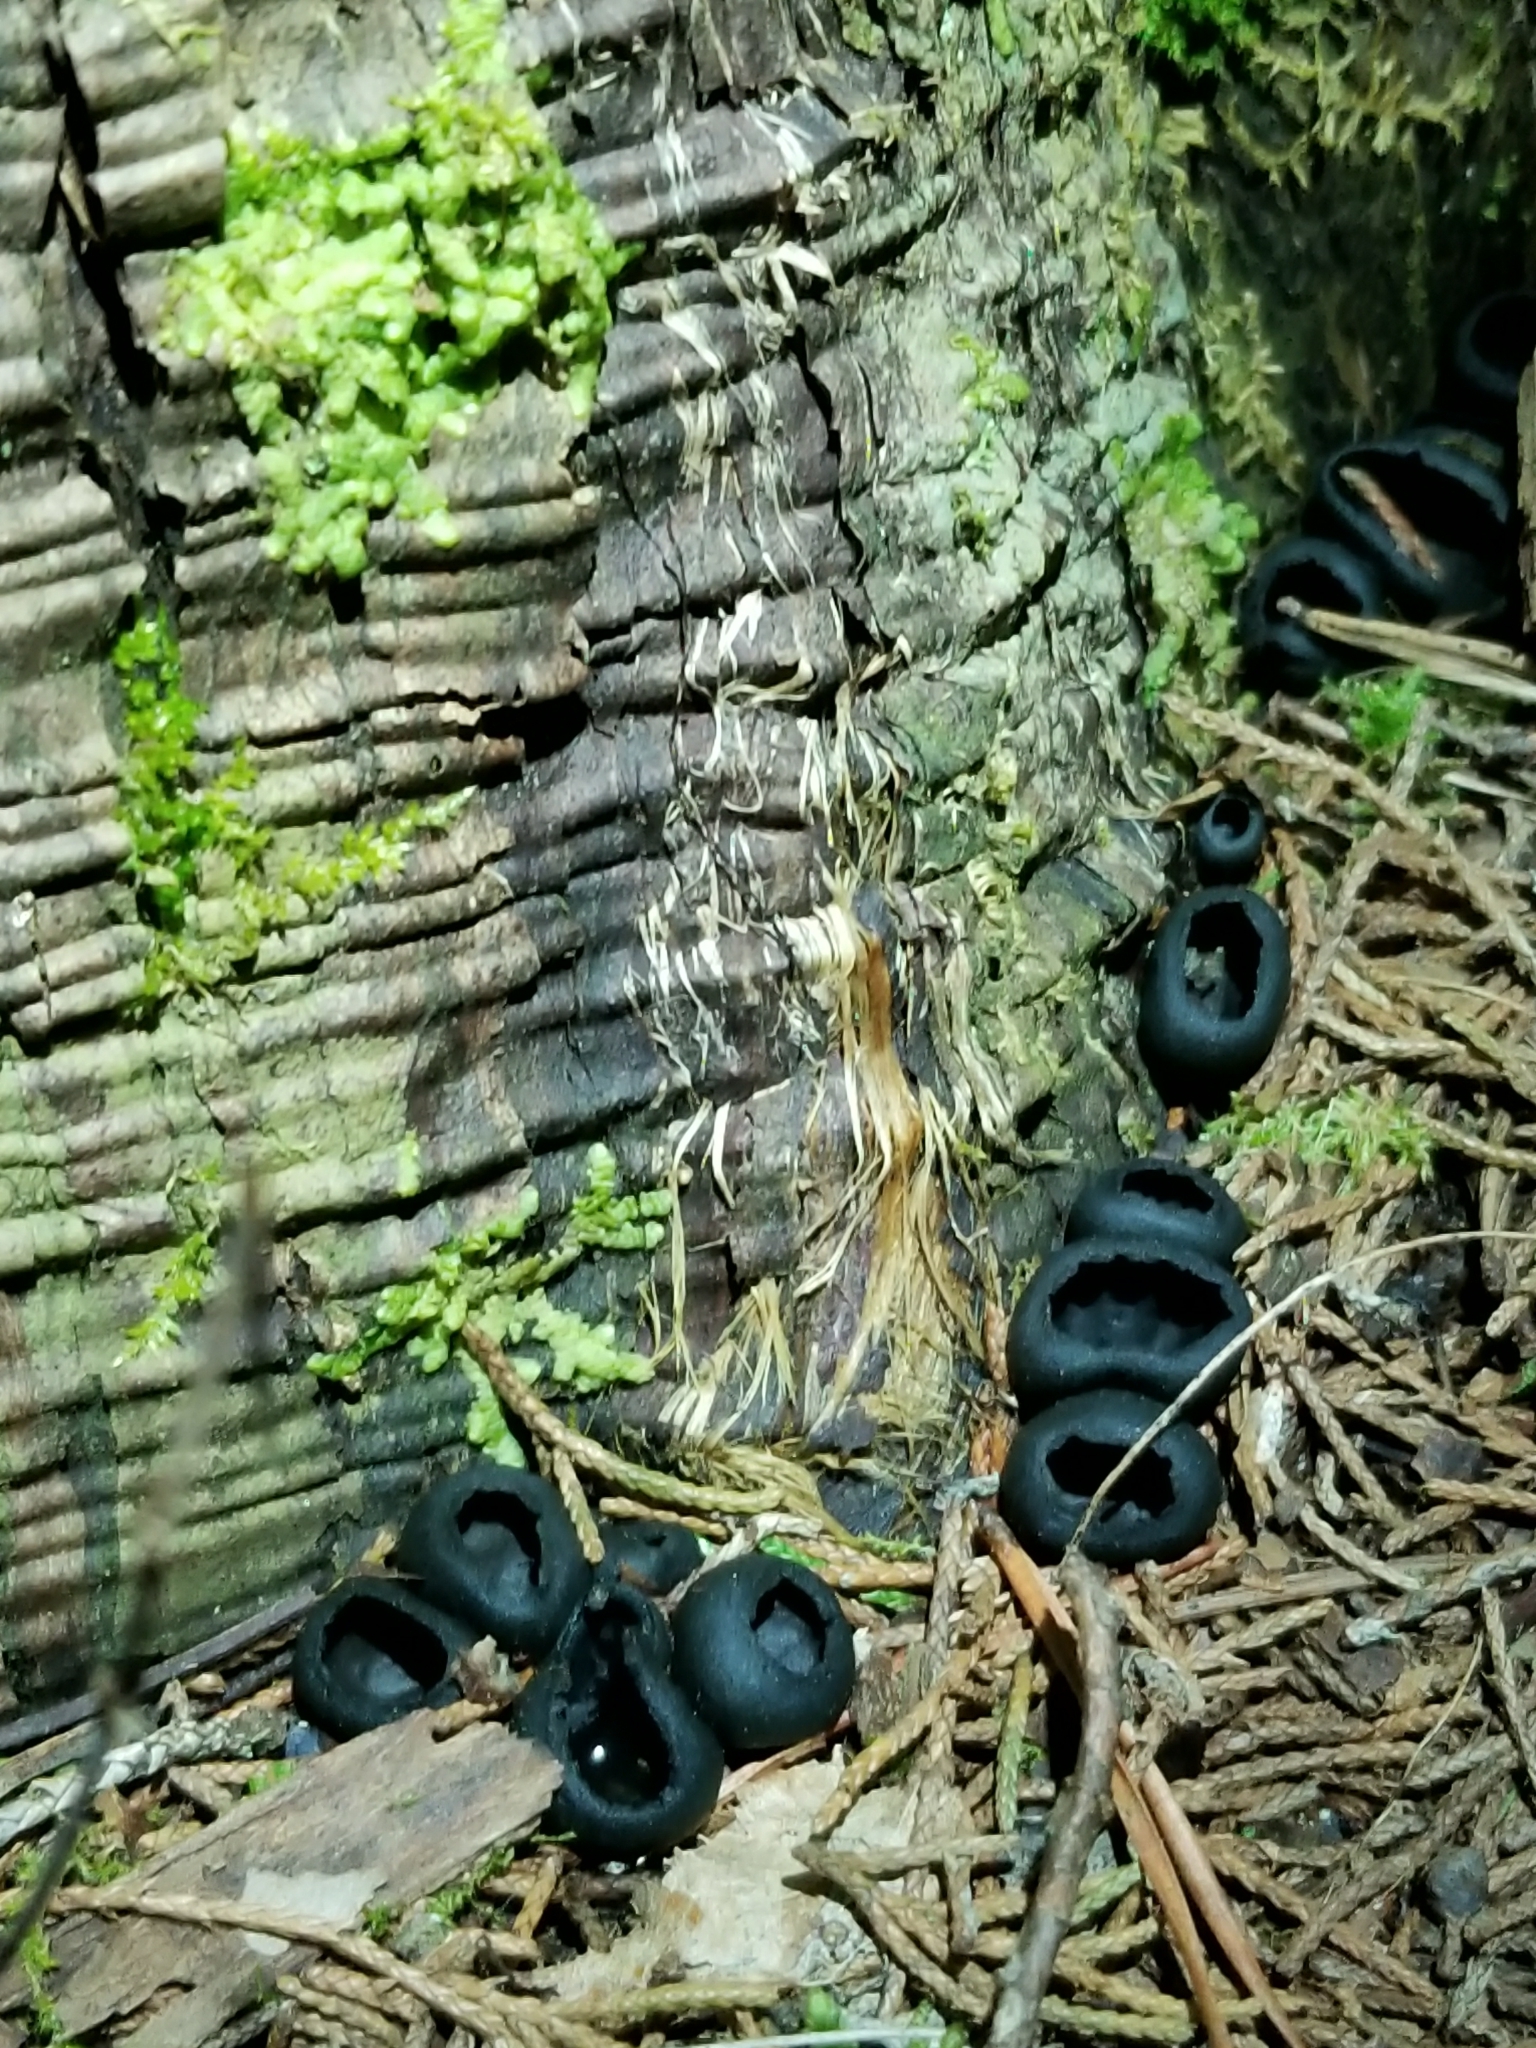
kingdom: Fungi
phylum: Ascomycota
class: Pezizomycetes
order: Pezizales
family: Sarcosomataceae
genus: Urnula
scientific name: Urnula craterium
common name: Devil's urn
